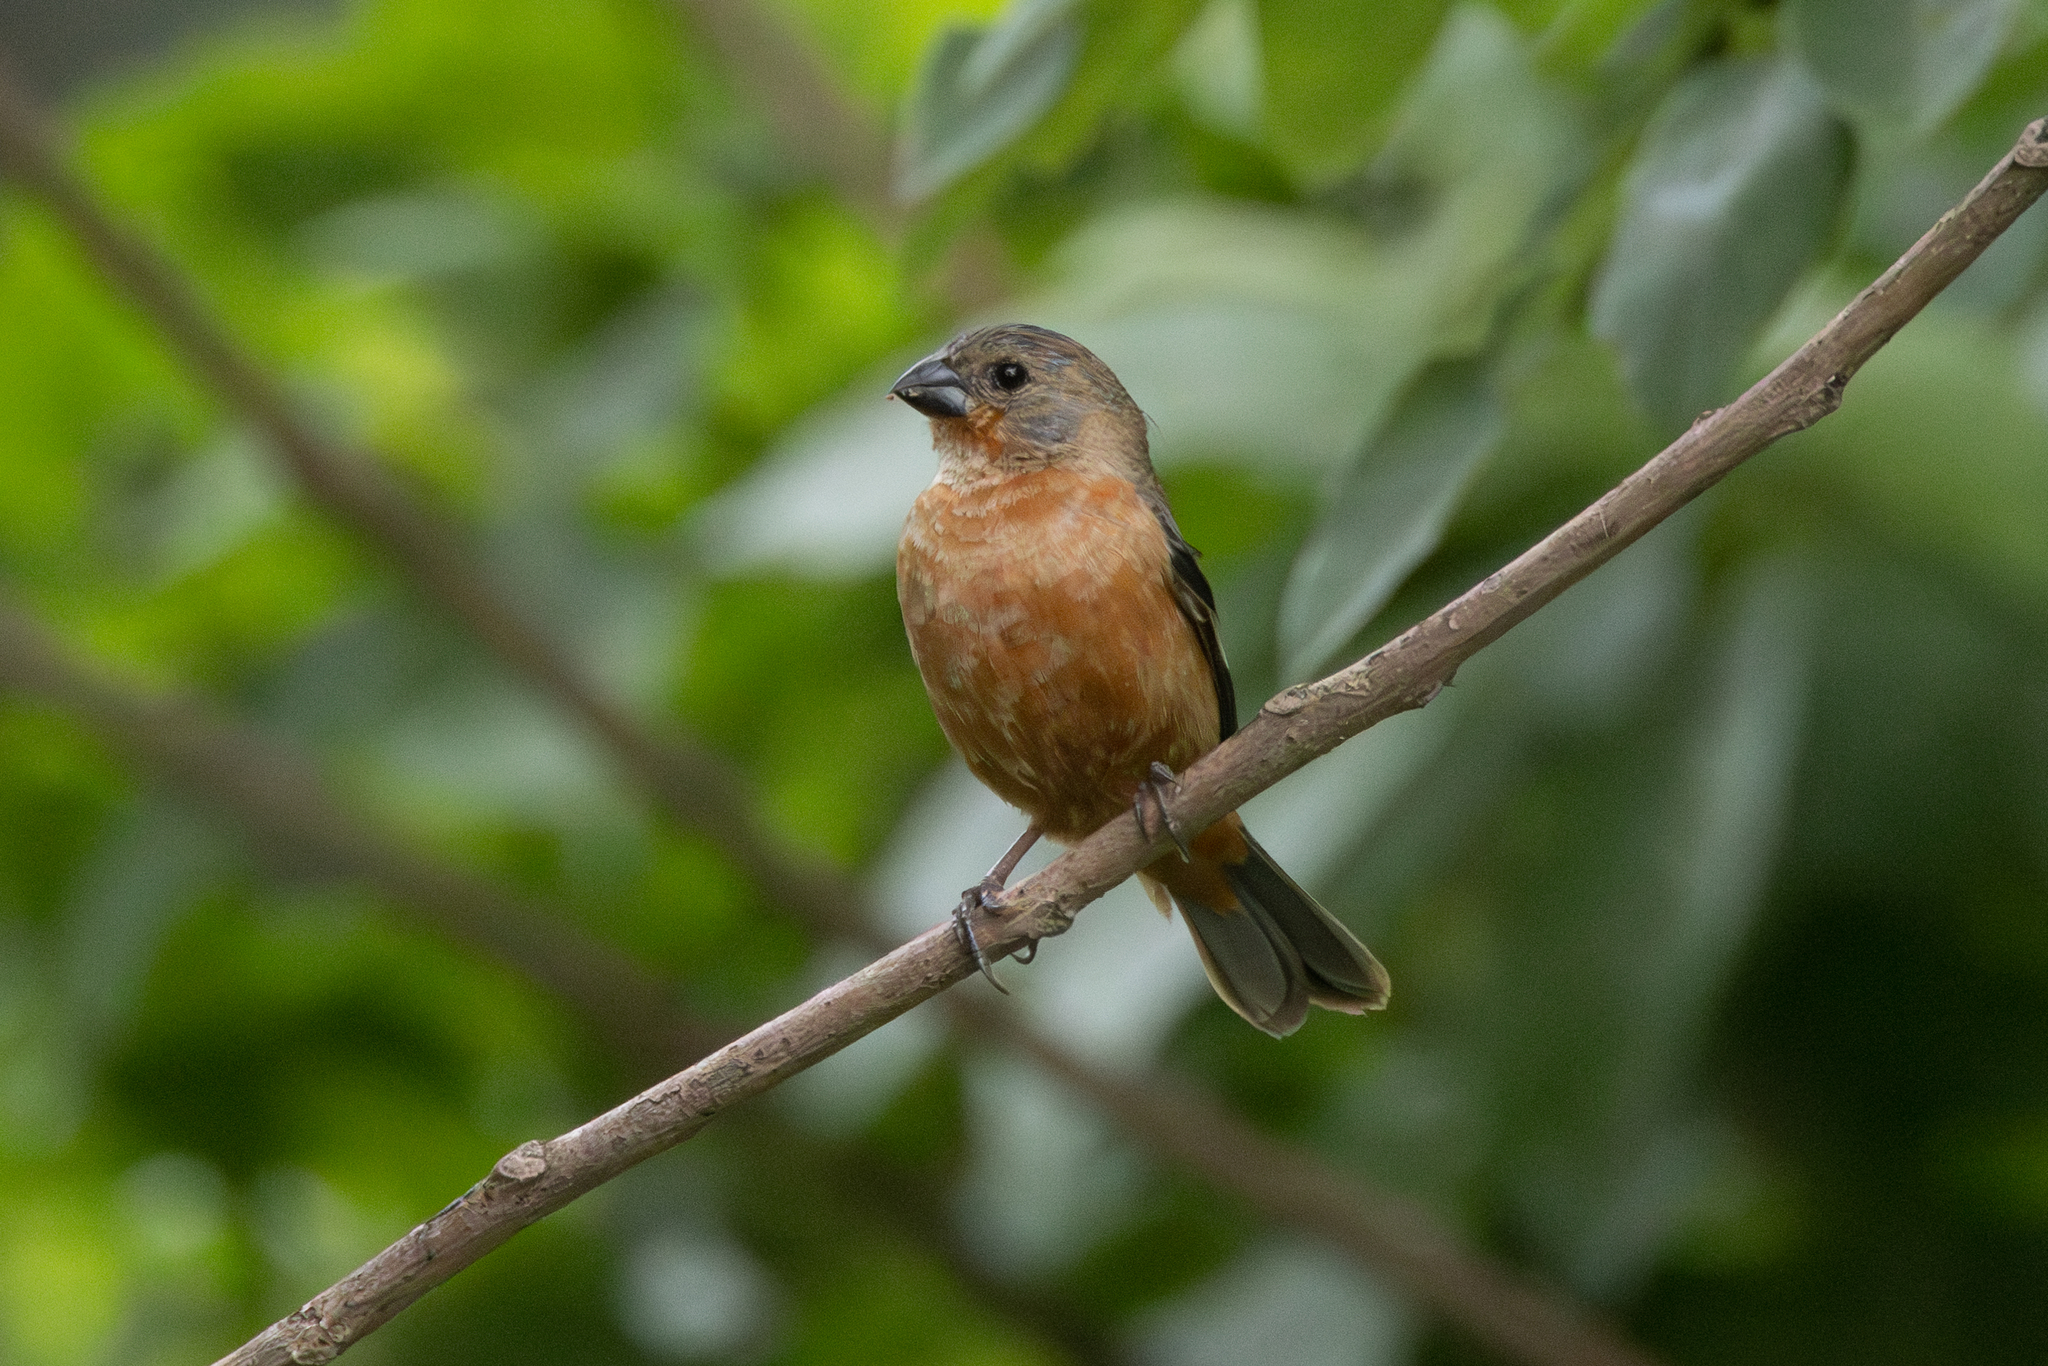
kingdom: Animalia
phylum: Chordata
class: Aves
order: Passeriformes
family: Thraupidae
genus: Sporophila
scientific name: Sporophila minuta
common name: Ruddy-breasted seedeater
